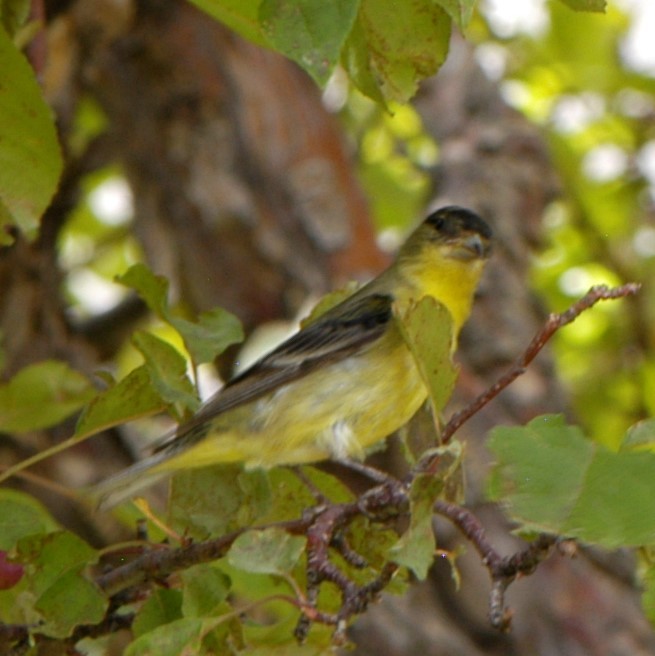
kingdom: Animalia
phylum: Chordata
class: Aves
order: Passeriformes
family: Fringillidae
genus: Spinus
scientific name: Spinus psaltria
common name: Lesser goldfinch
